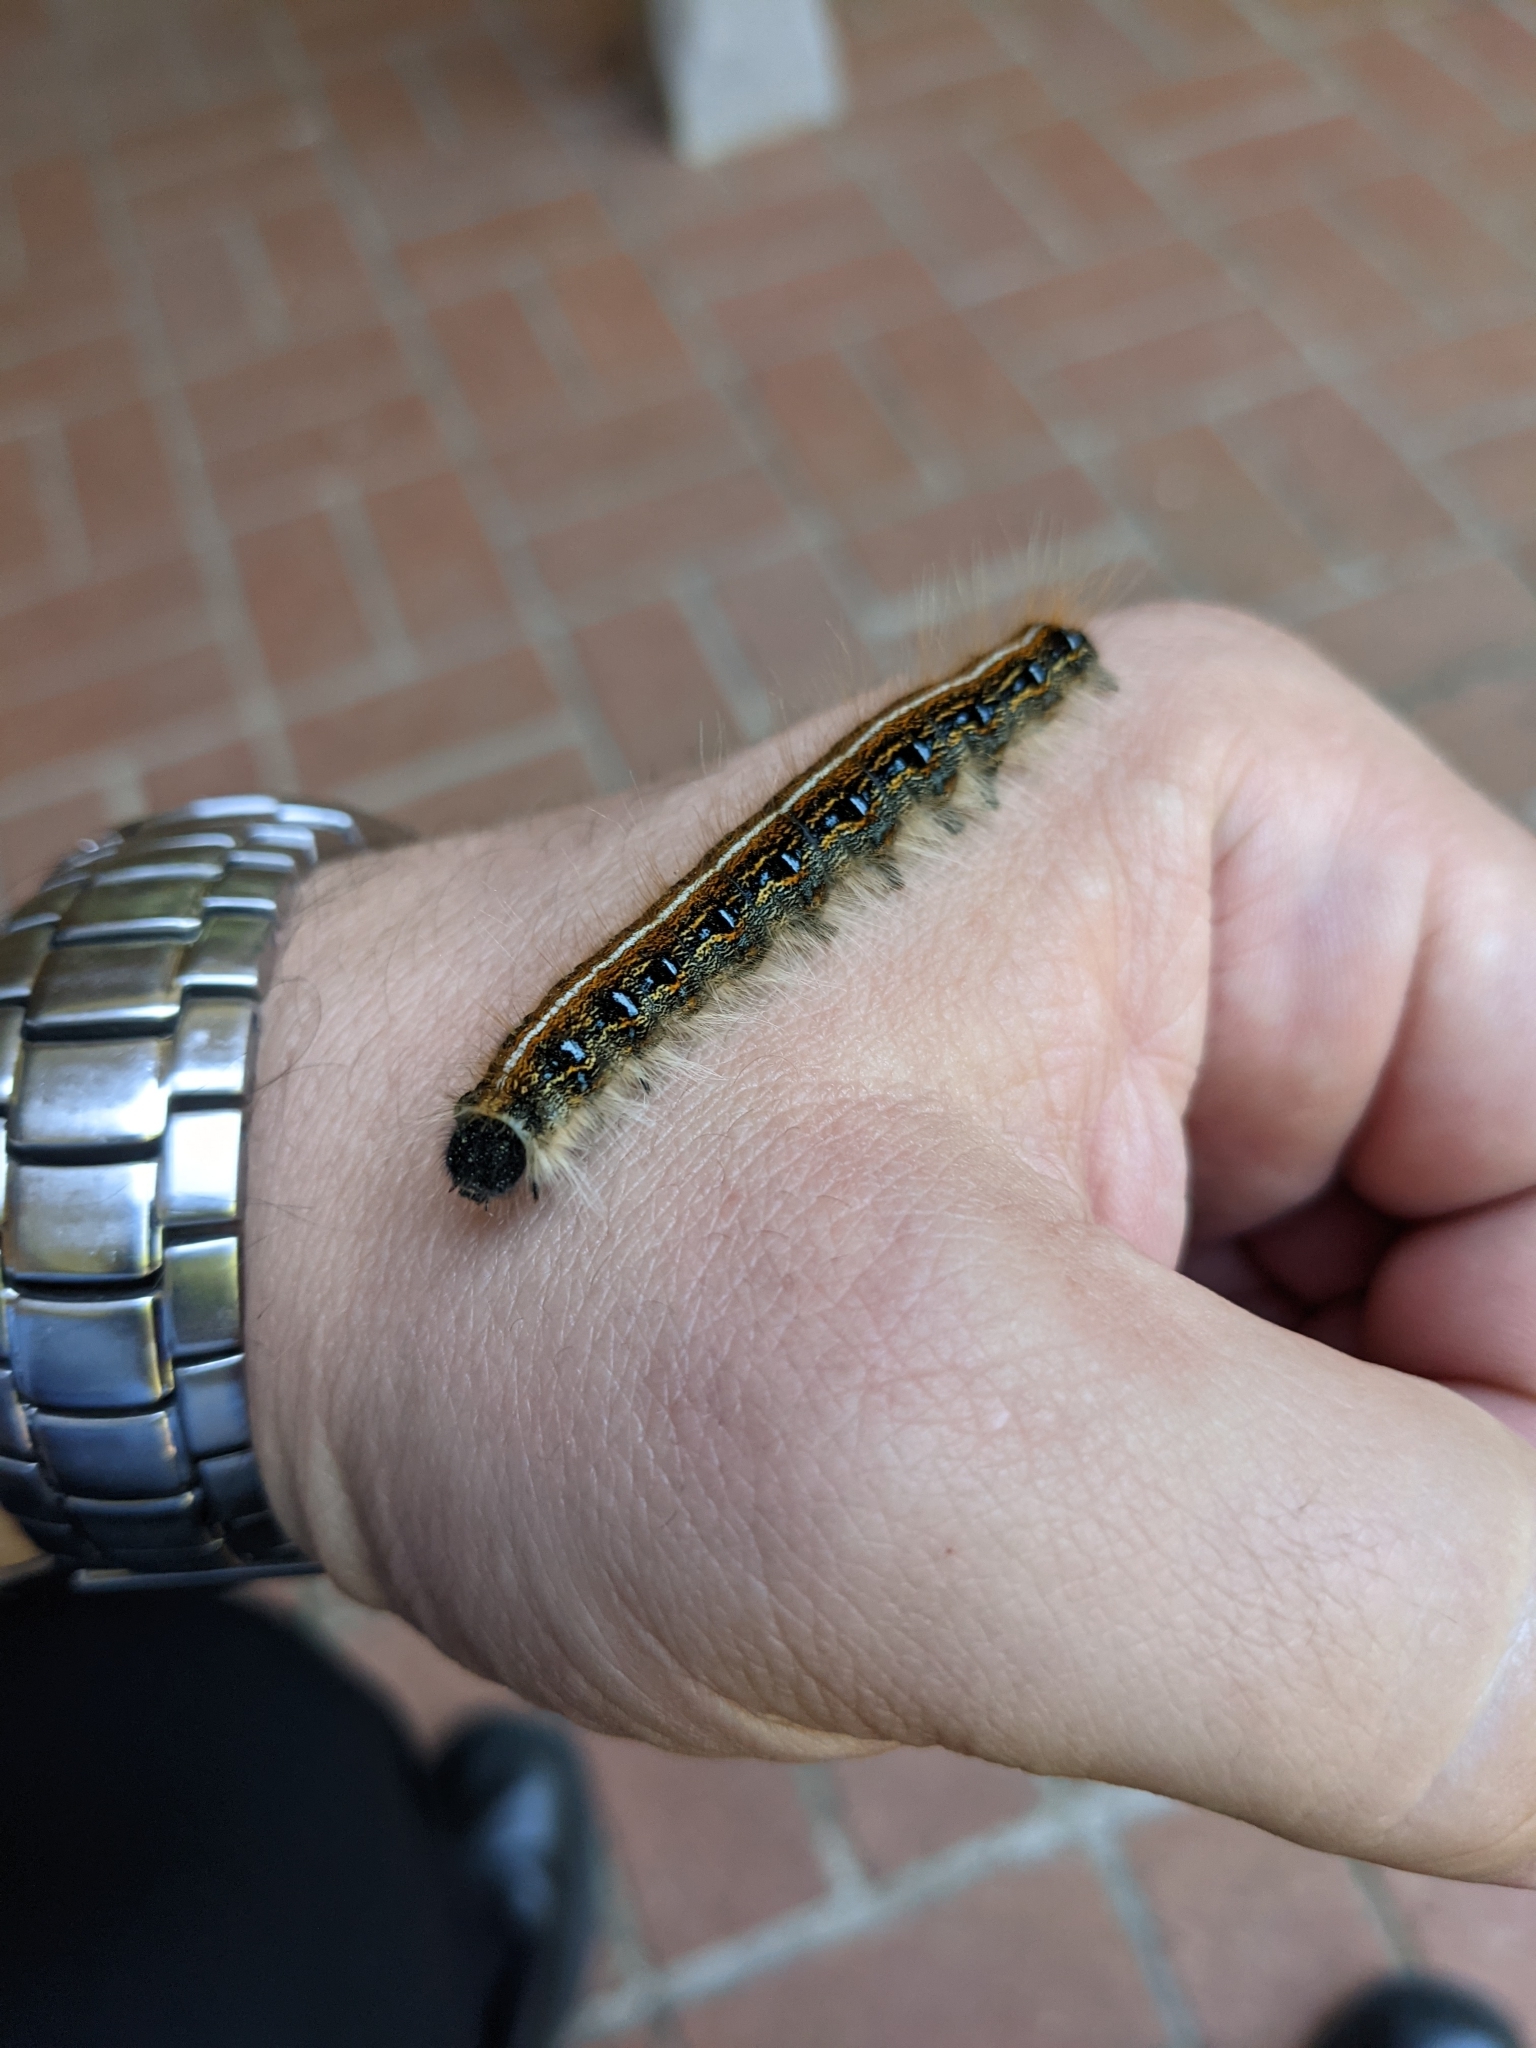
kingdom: Animalia
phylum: Arthropoda
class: Insecta
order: Lepidoptera
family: Lasiocampidae
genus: Malacosoma
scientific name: Malacosoma americana
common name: Eastern tent caterpillar moth
